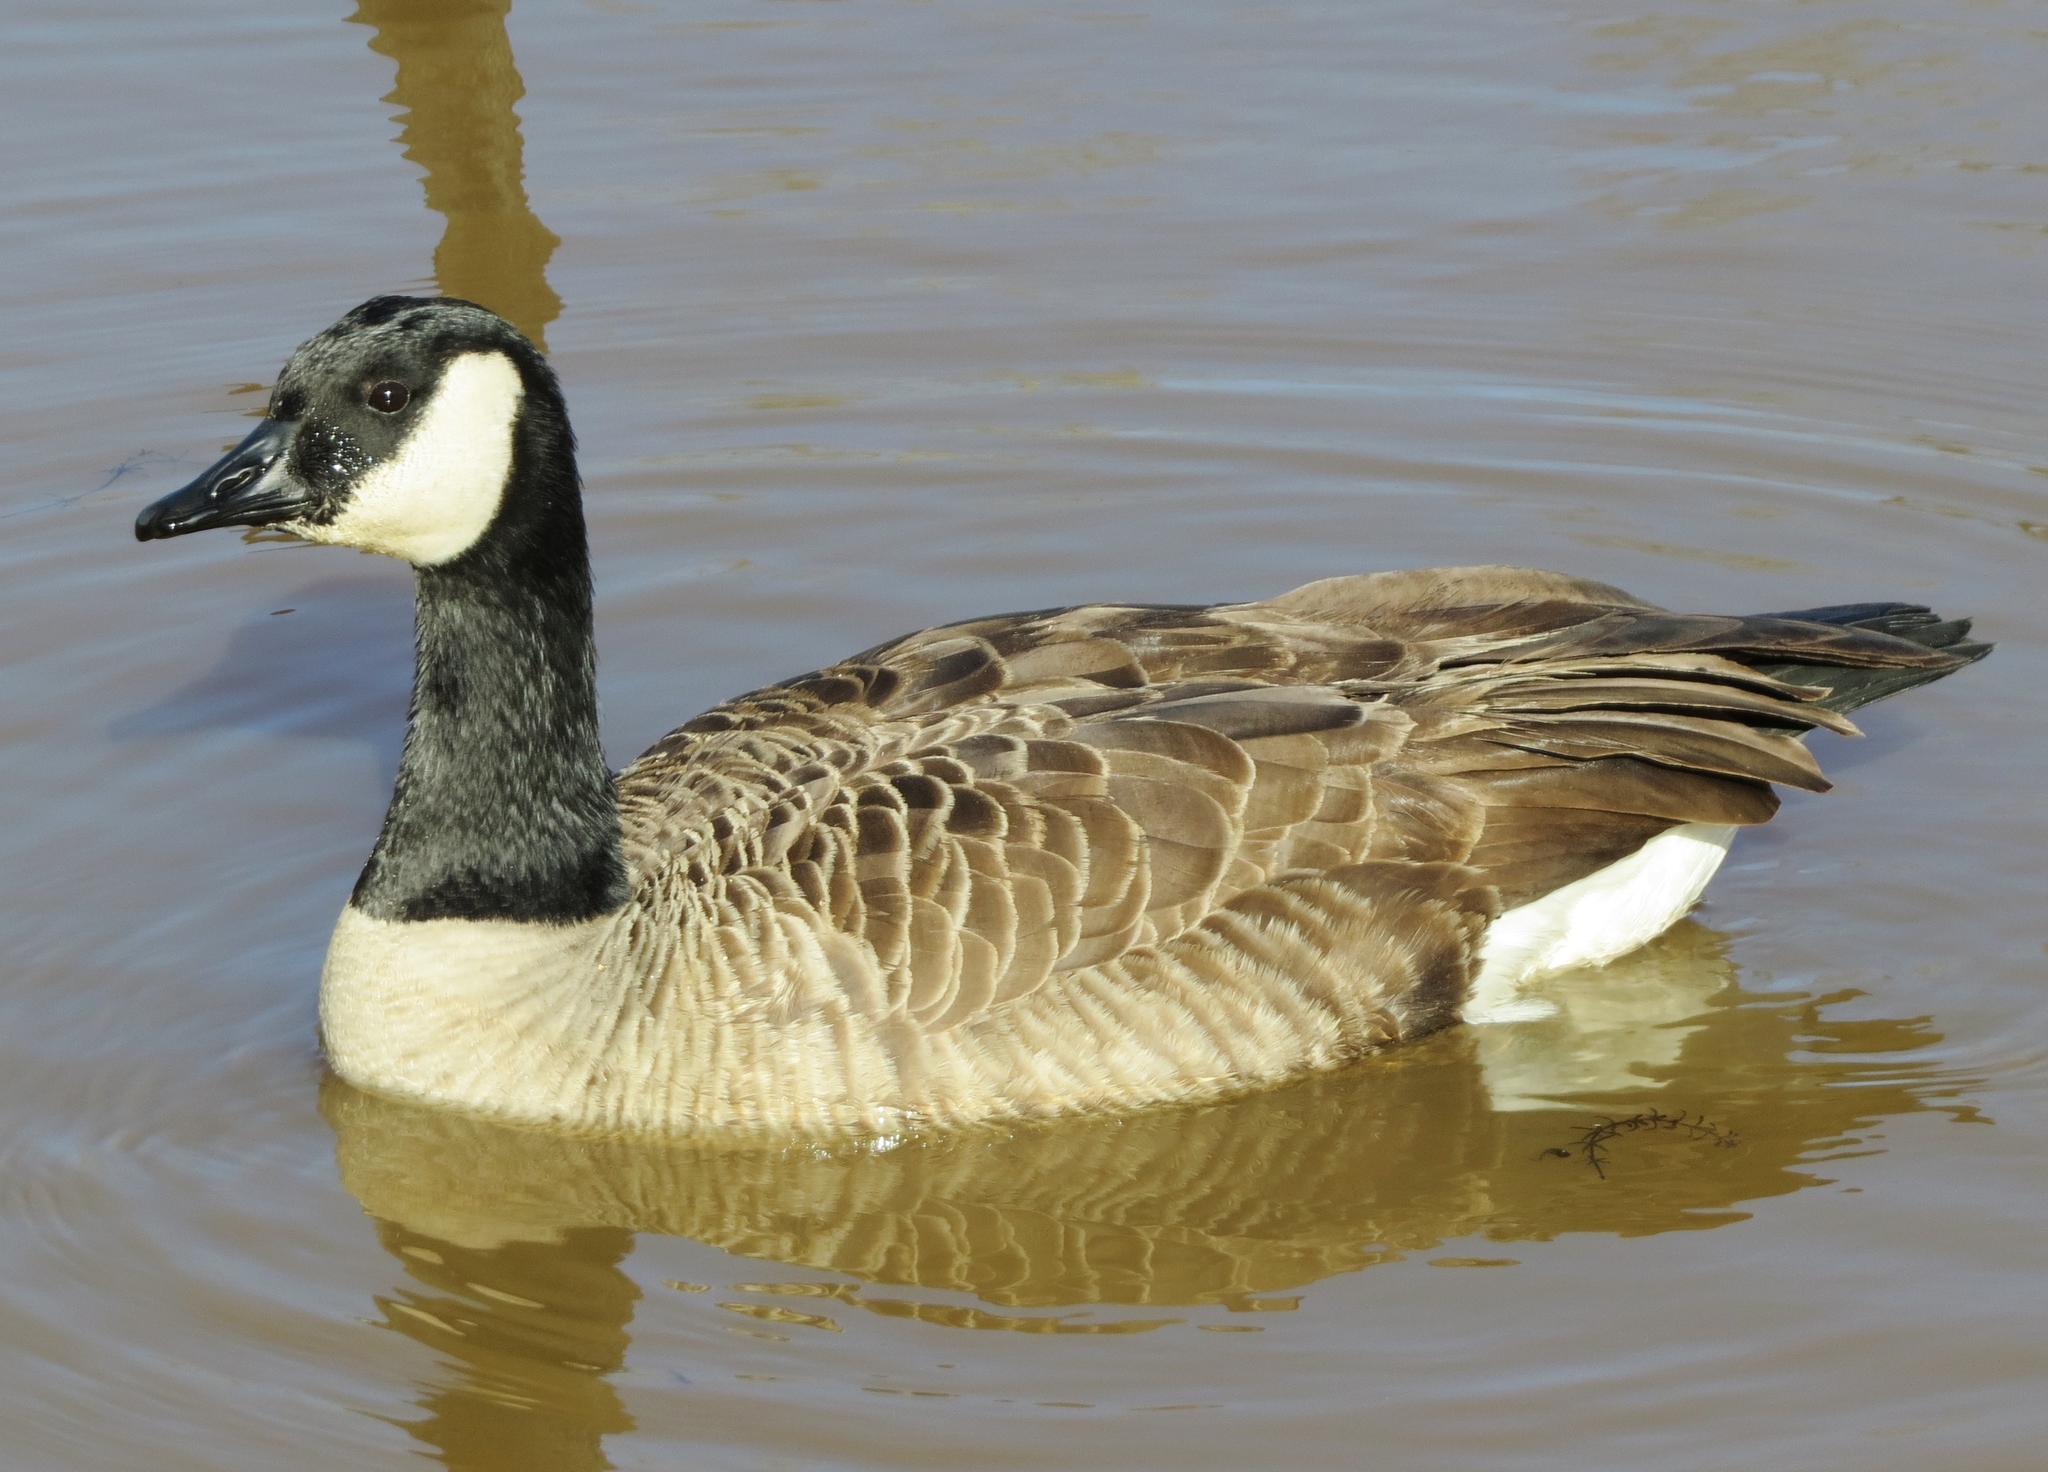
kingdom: Animalia
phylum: Chordata
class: Aves
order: Anseriformes
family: Anatidae
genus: Branta
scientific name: Branta canadensis
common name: Canada goose
